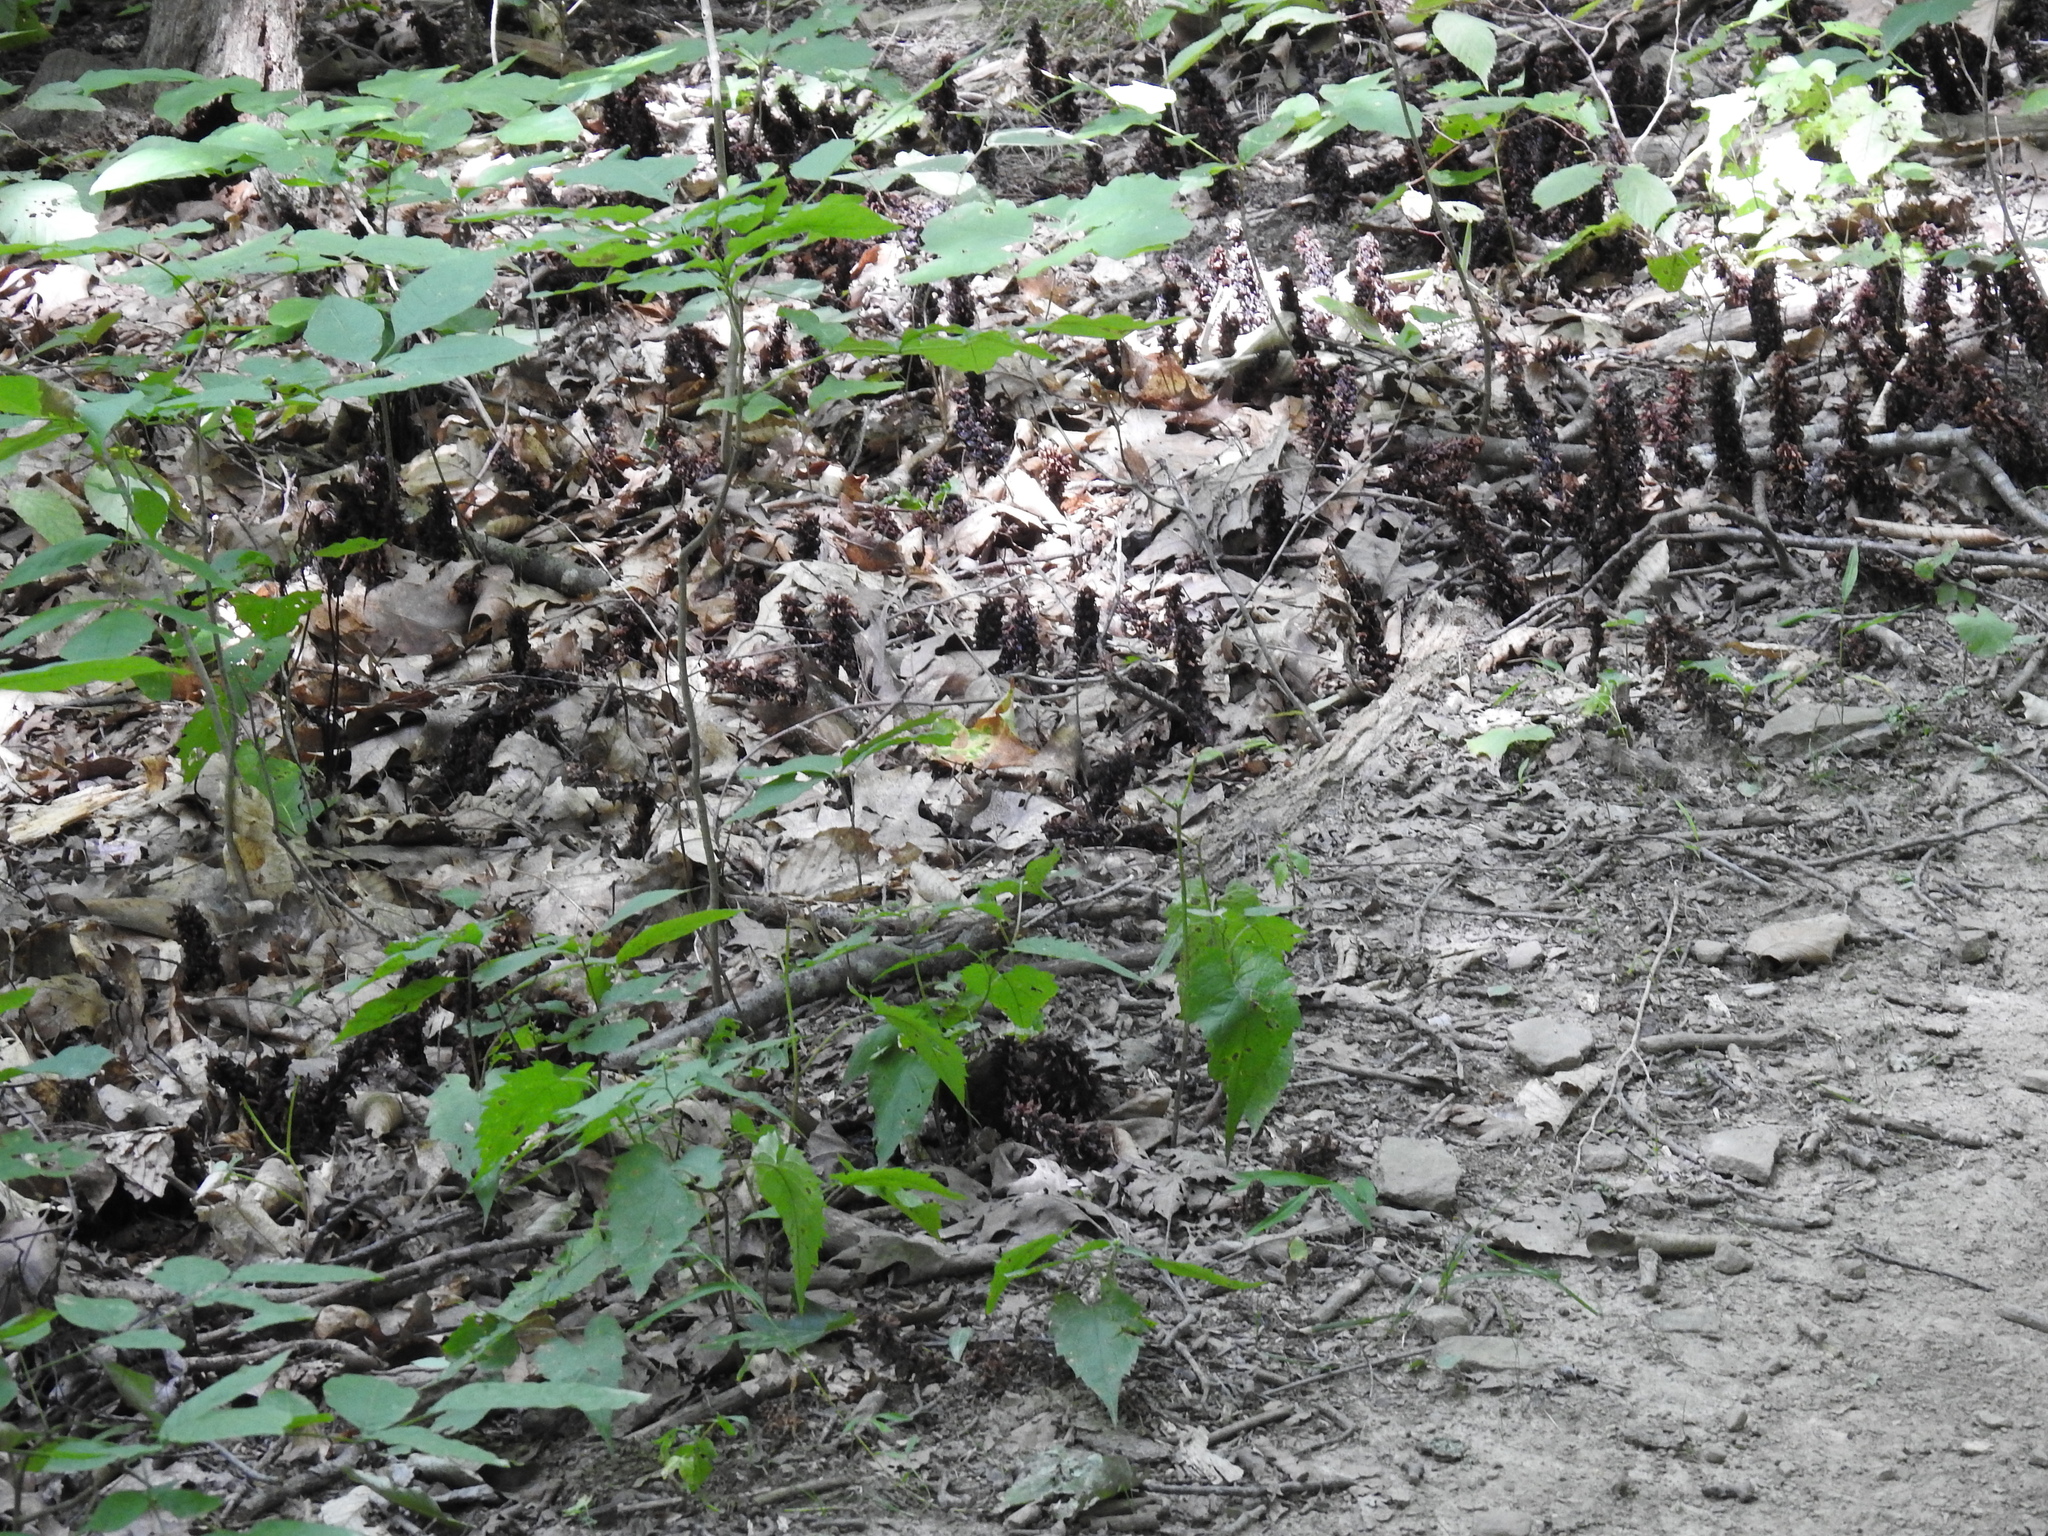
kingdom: Plantae
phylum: Tracheophyta
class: Magnoliopsida
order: Lamiales
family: Orobanchaceae
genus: Conopholis
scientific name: Conopholis americana
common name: American cancer-root
